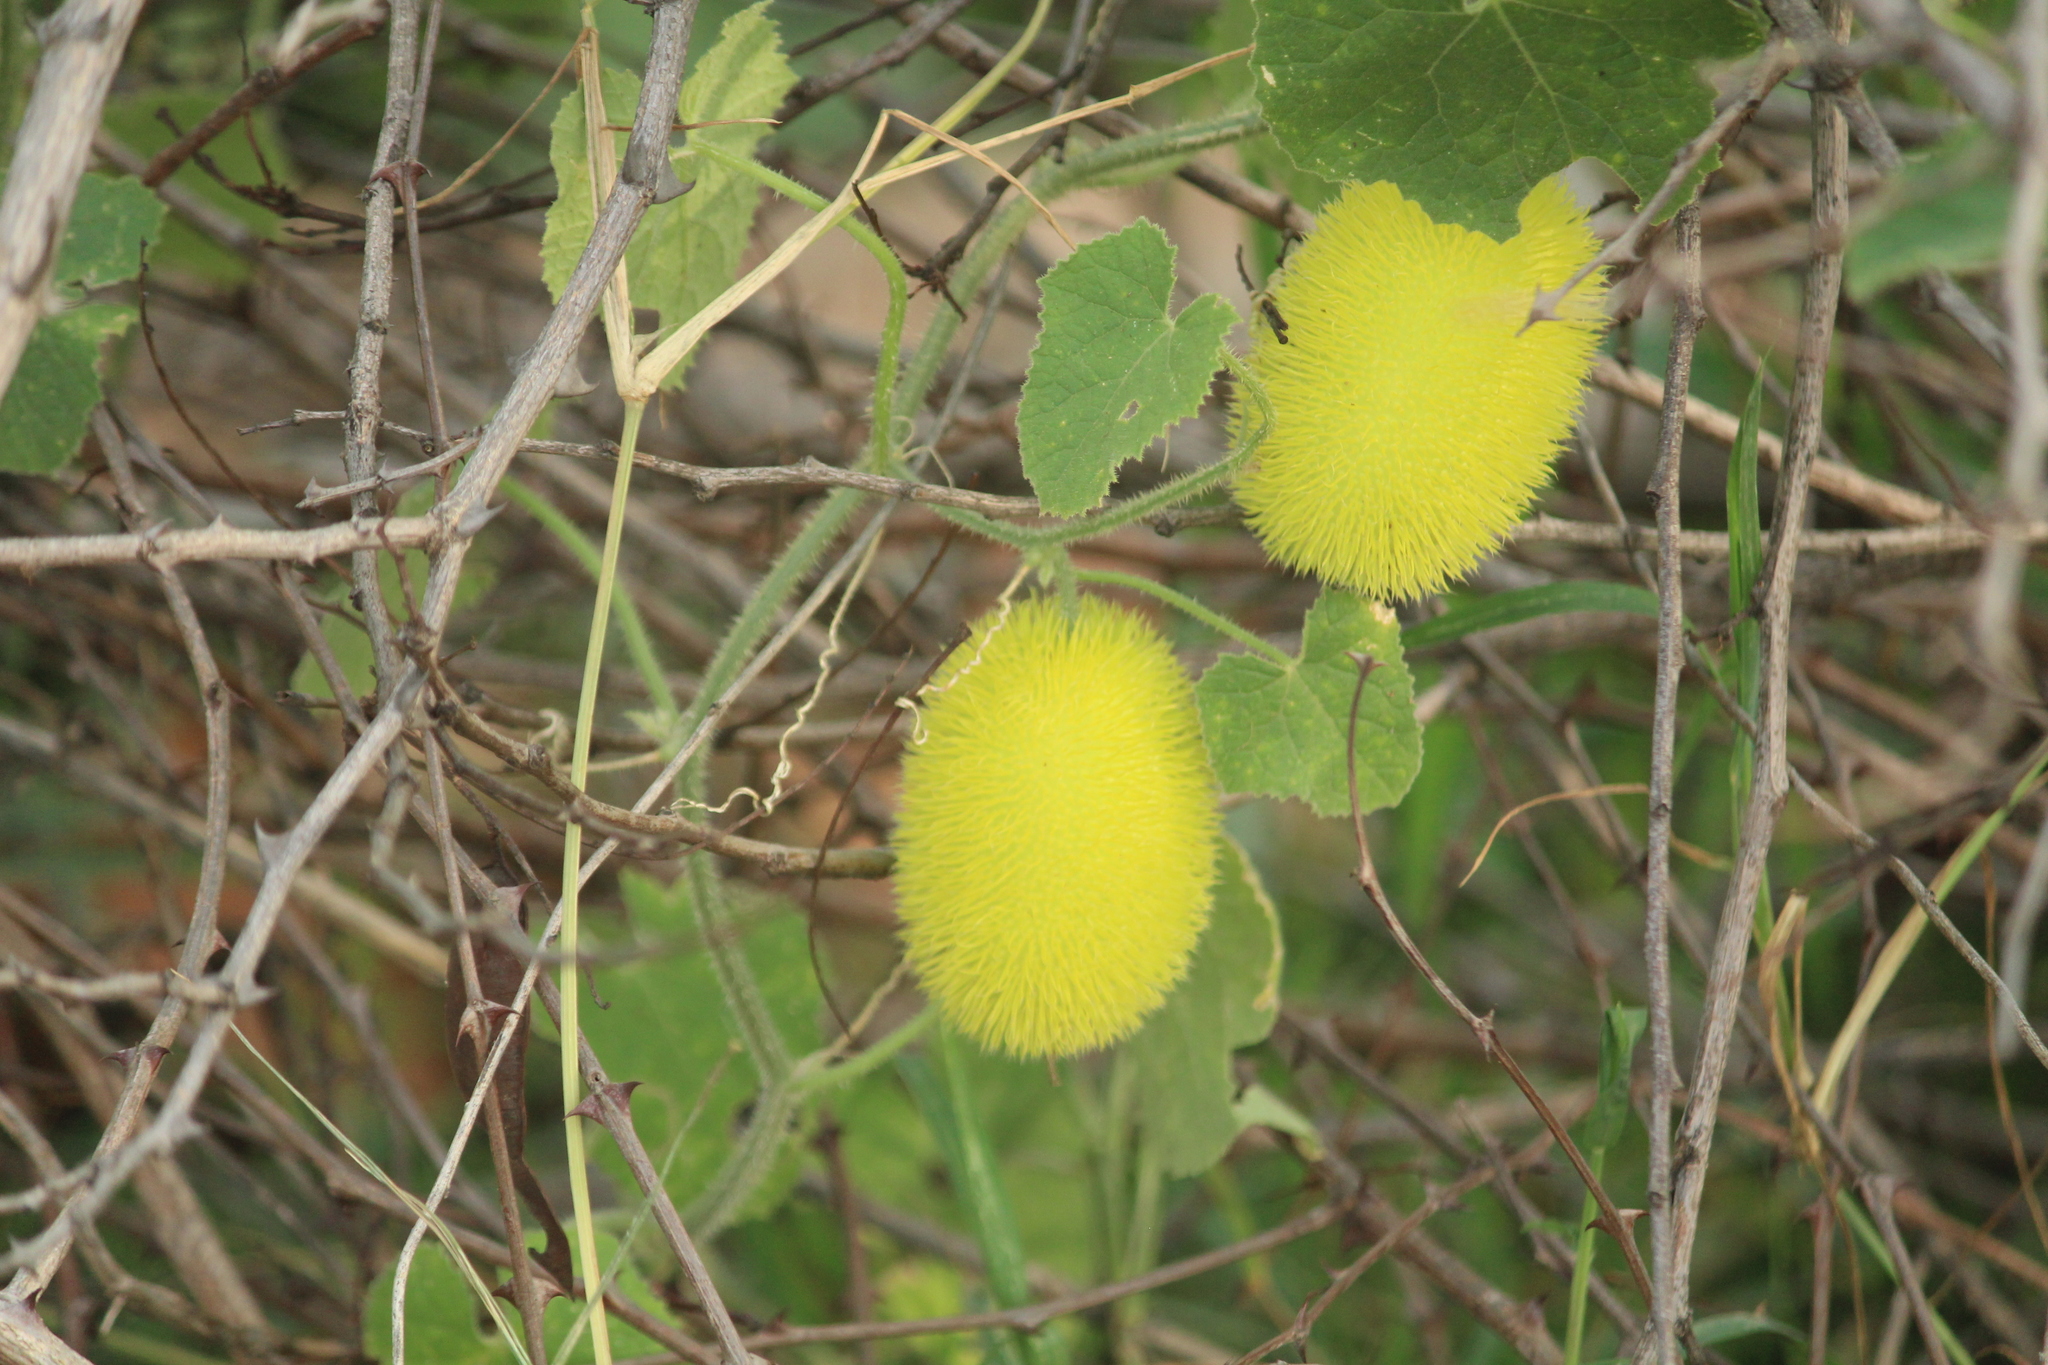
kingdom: Plantae
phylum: Tracheophyta
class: Magnoliopsida
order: Cucurbitales
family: Cucurbitaceae
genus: Cucumis
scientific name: Cucumis dipsaceus
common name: Hedgehog gourd
